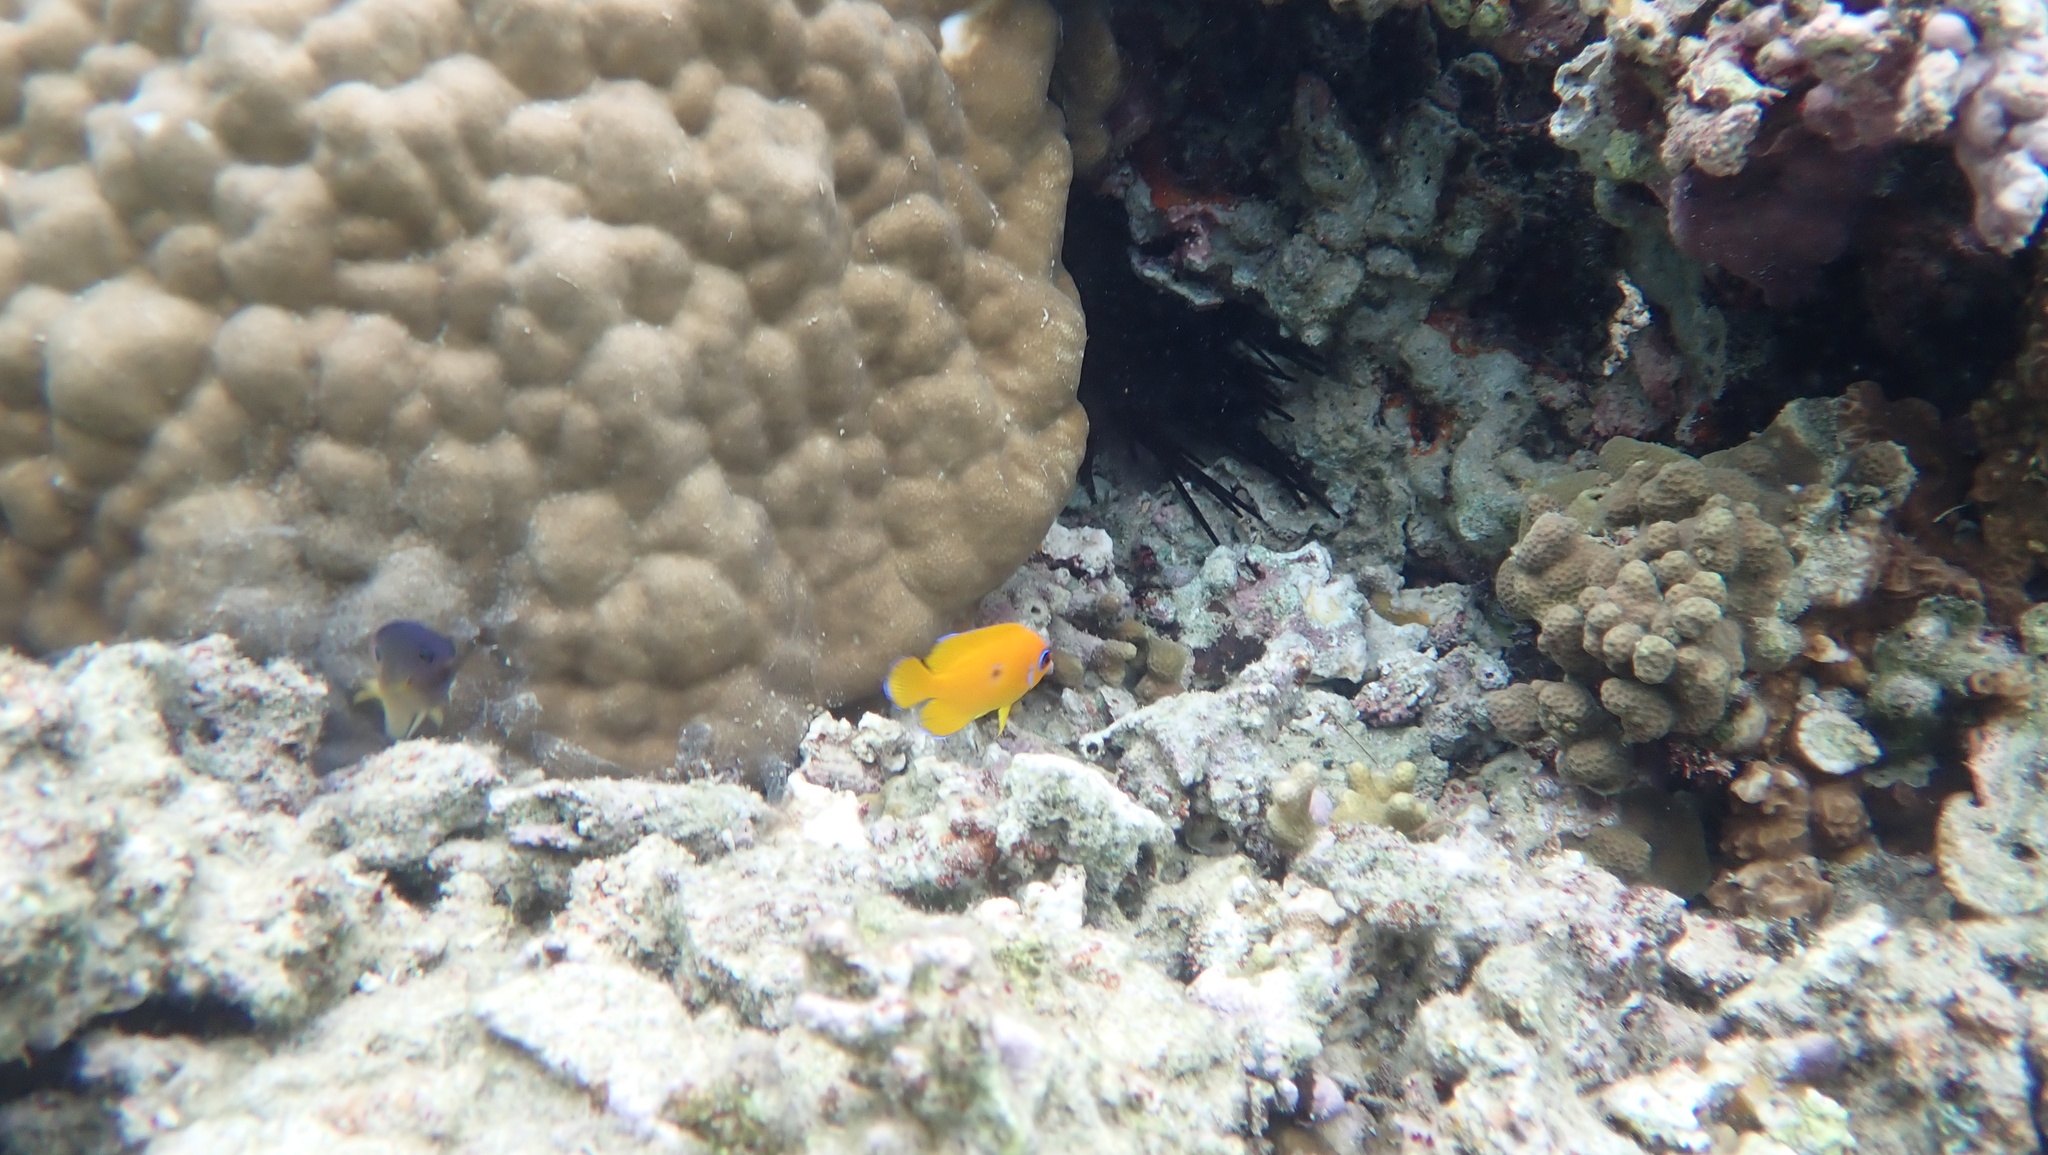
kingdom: Animalia
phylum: Chordata
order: Perciformes
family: Pomacanthidae
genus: Centropyge
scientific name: Centropyge flavissima
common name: Lemonpeel angelfish
